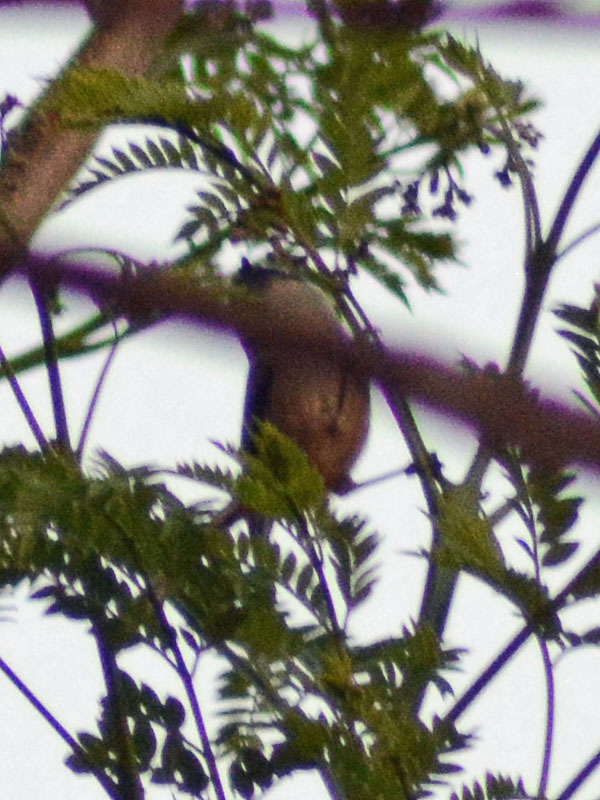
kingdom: Animalia
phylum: Chordata
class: Aves
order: Passeriformes
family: Aegithalidae
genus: Psaltriparus
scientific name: Psaltriparus minimus
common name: American bushtit
